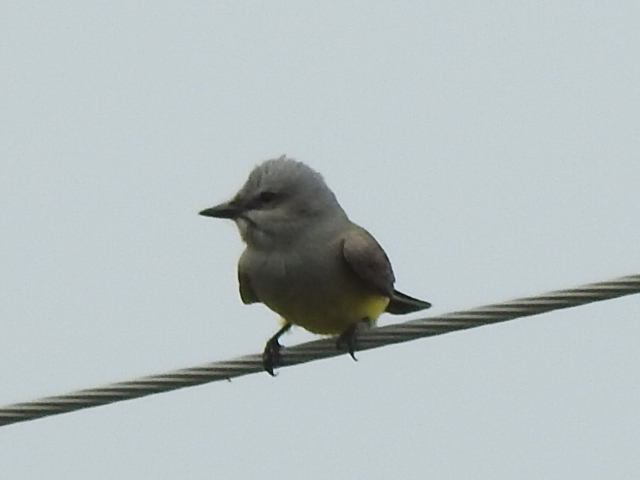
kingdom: Animalia
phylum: Chordata
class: Aves
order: Passeriformes
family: Tyrannidae
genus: Tyrannus
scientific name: Tyrannus verticalis
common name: Western kingbird
